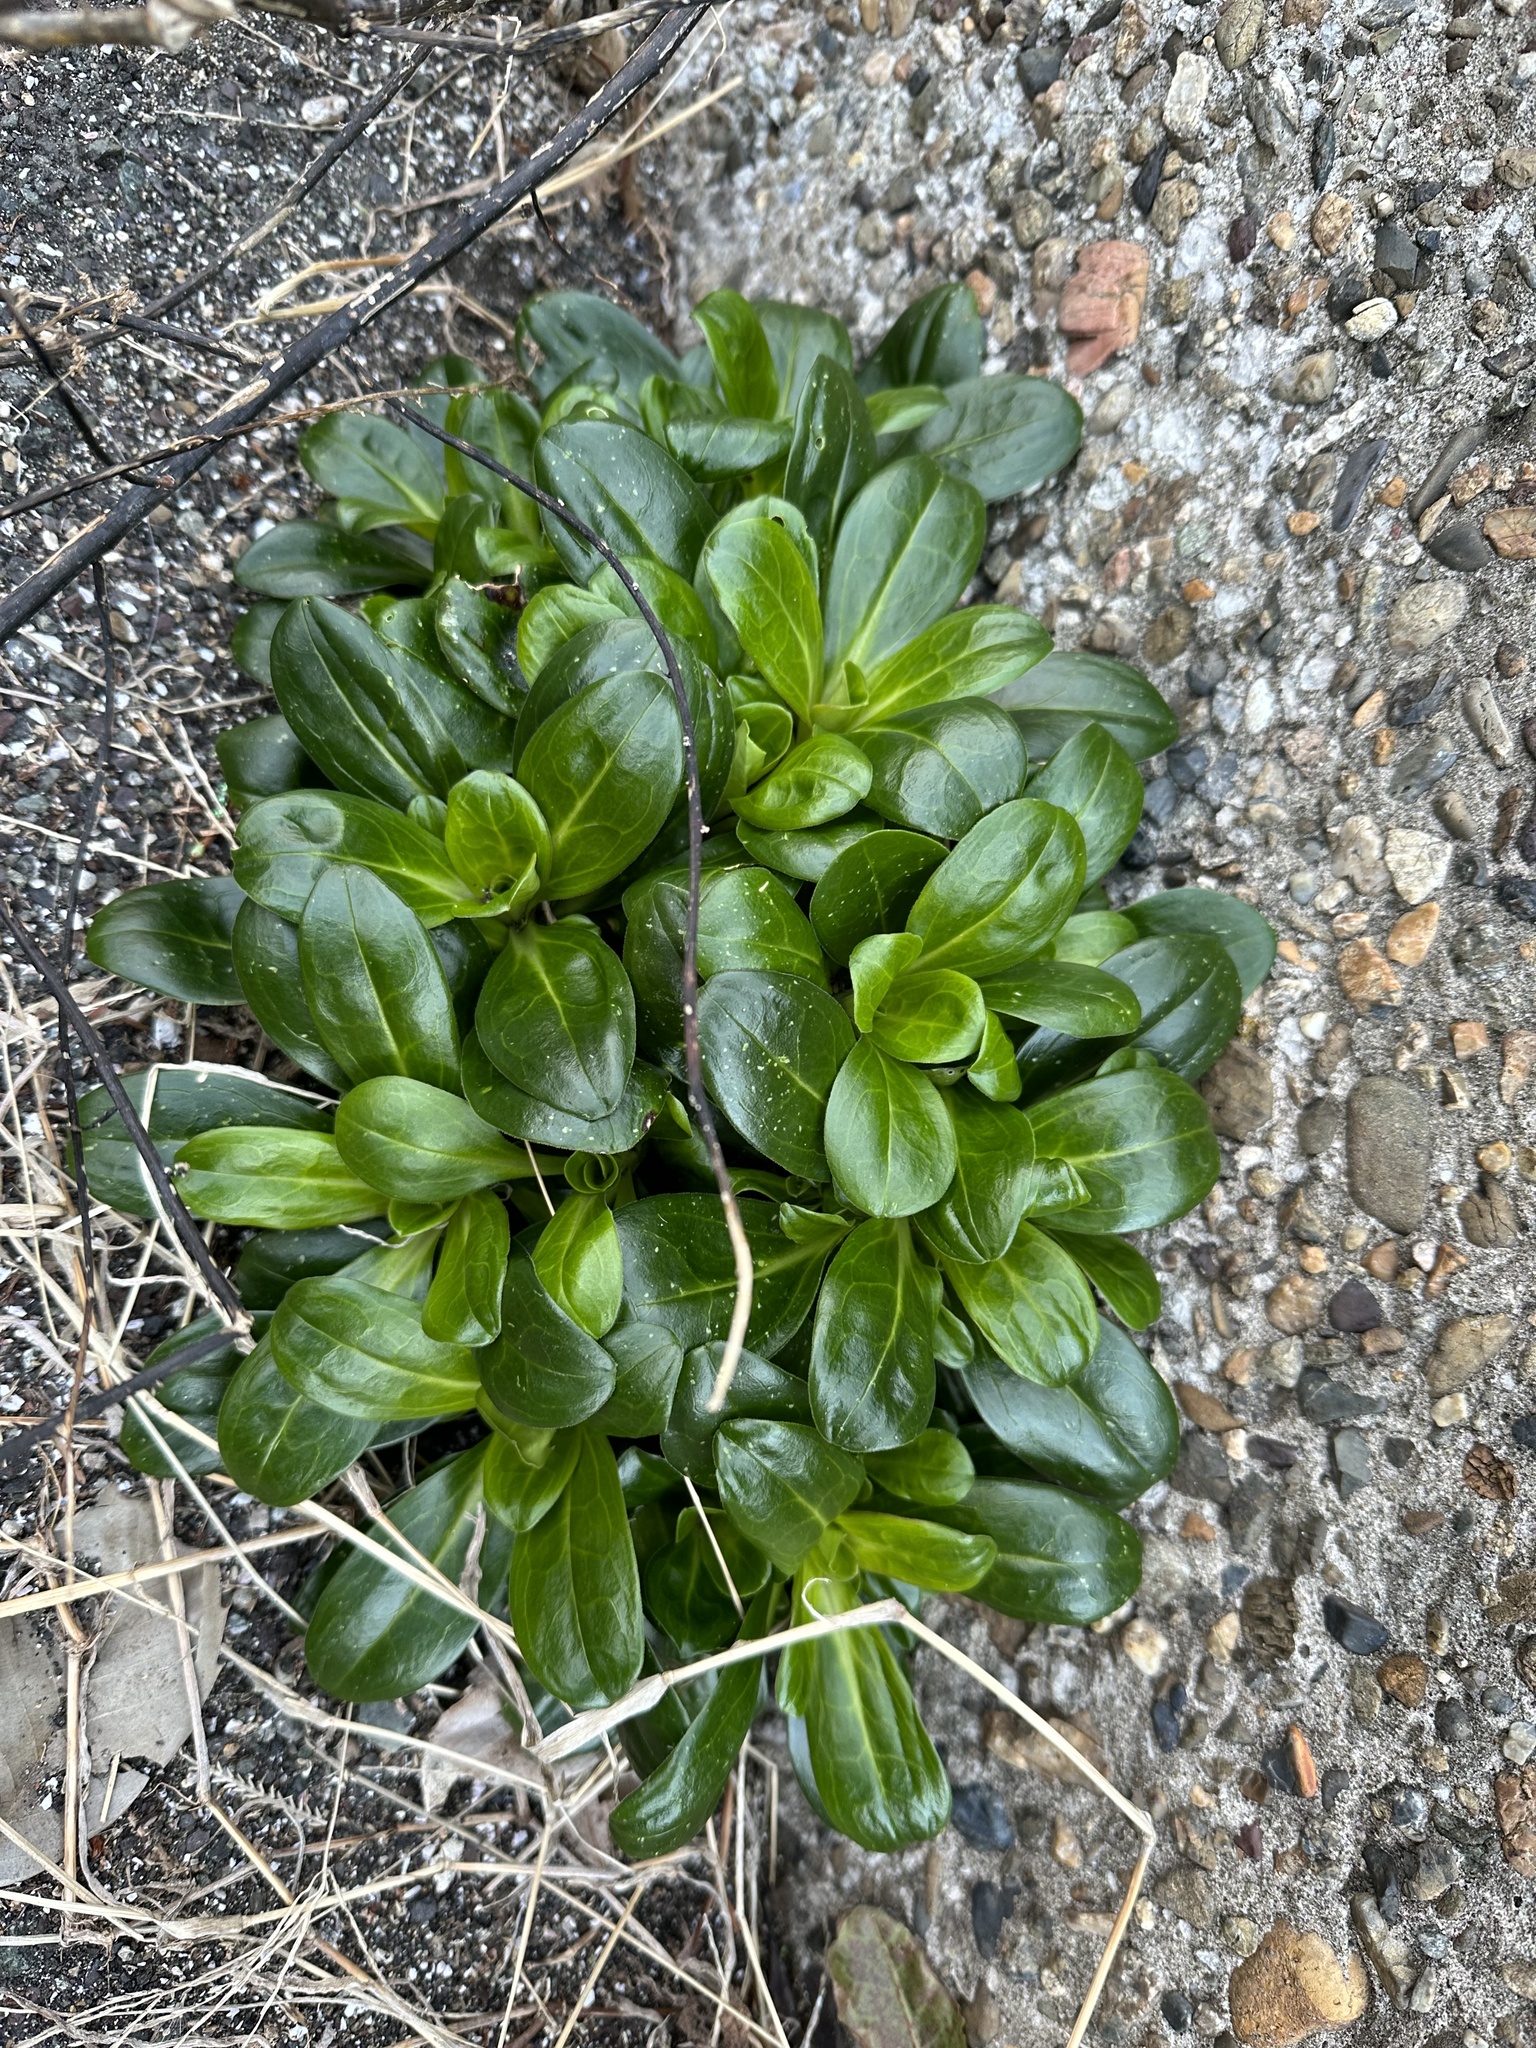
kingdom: Plantae
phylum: Tracheophyta
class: Magnoliopsida
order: Ericales
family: Primulaceae
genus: Lysimachia
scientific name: Lysimachia mauritiana
